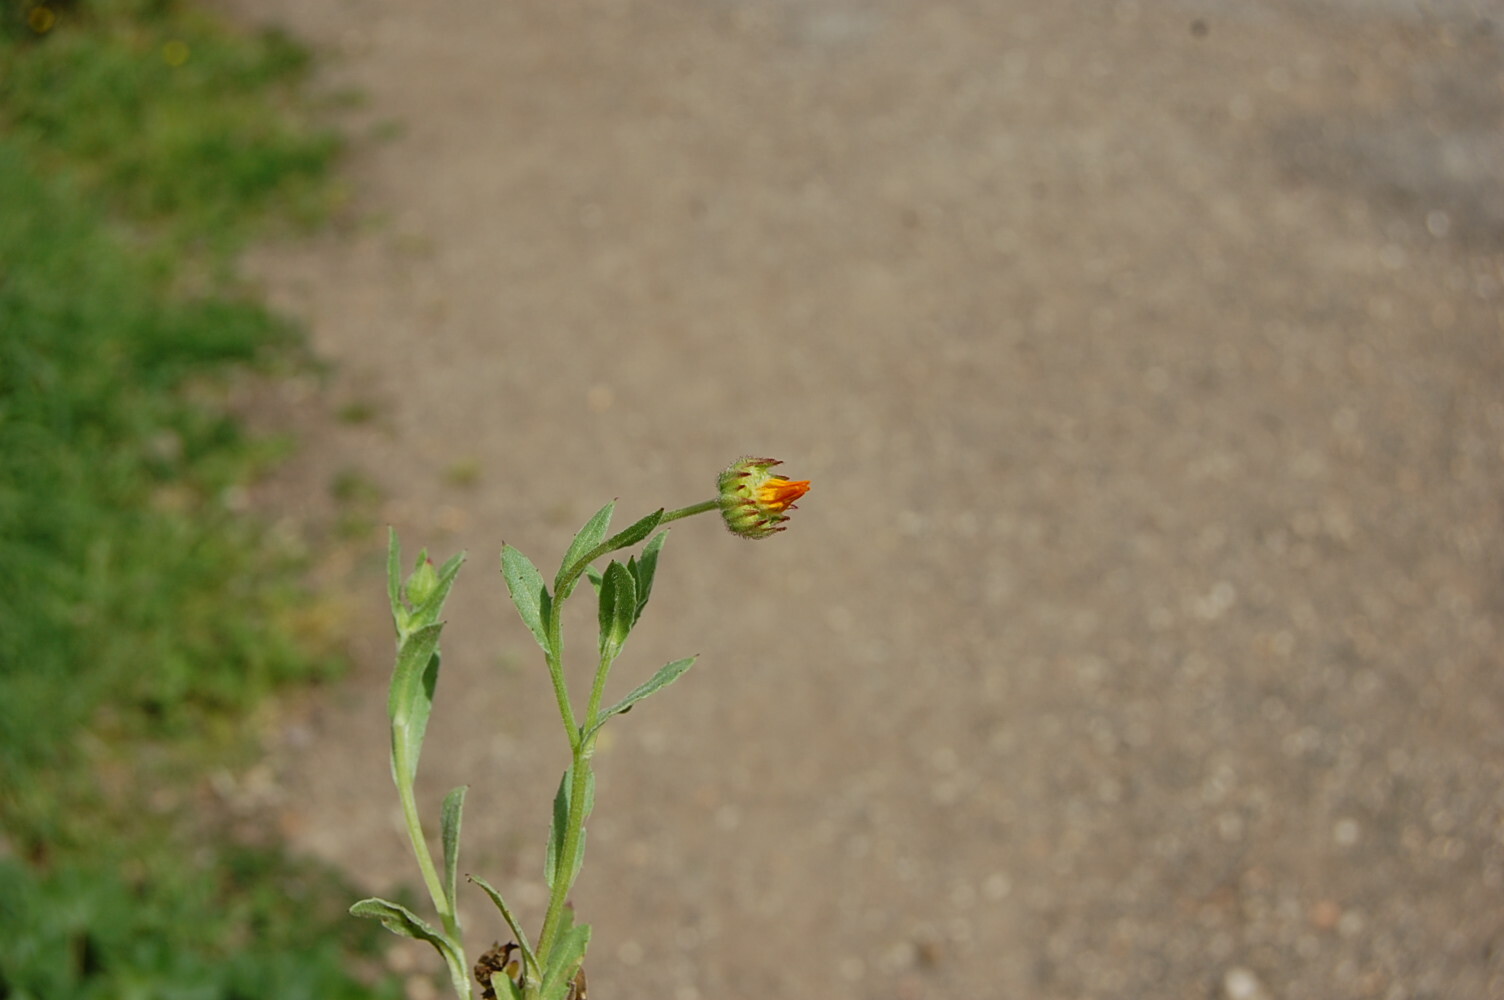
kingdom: Plantae
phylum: Tracheophyta
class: Magnoliopsida
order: Asterales
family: Asteraceae
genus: Calendula
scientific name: Calendula arvensis
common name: Field marigold
